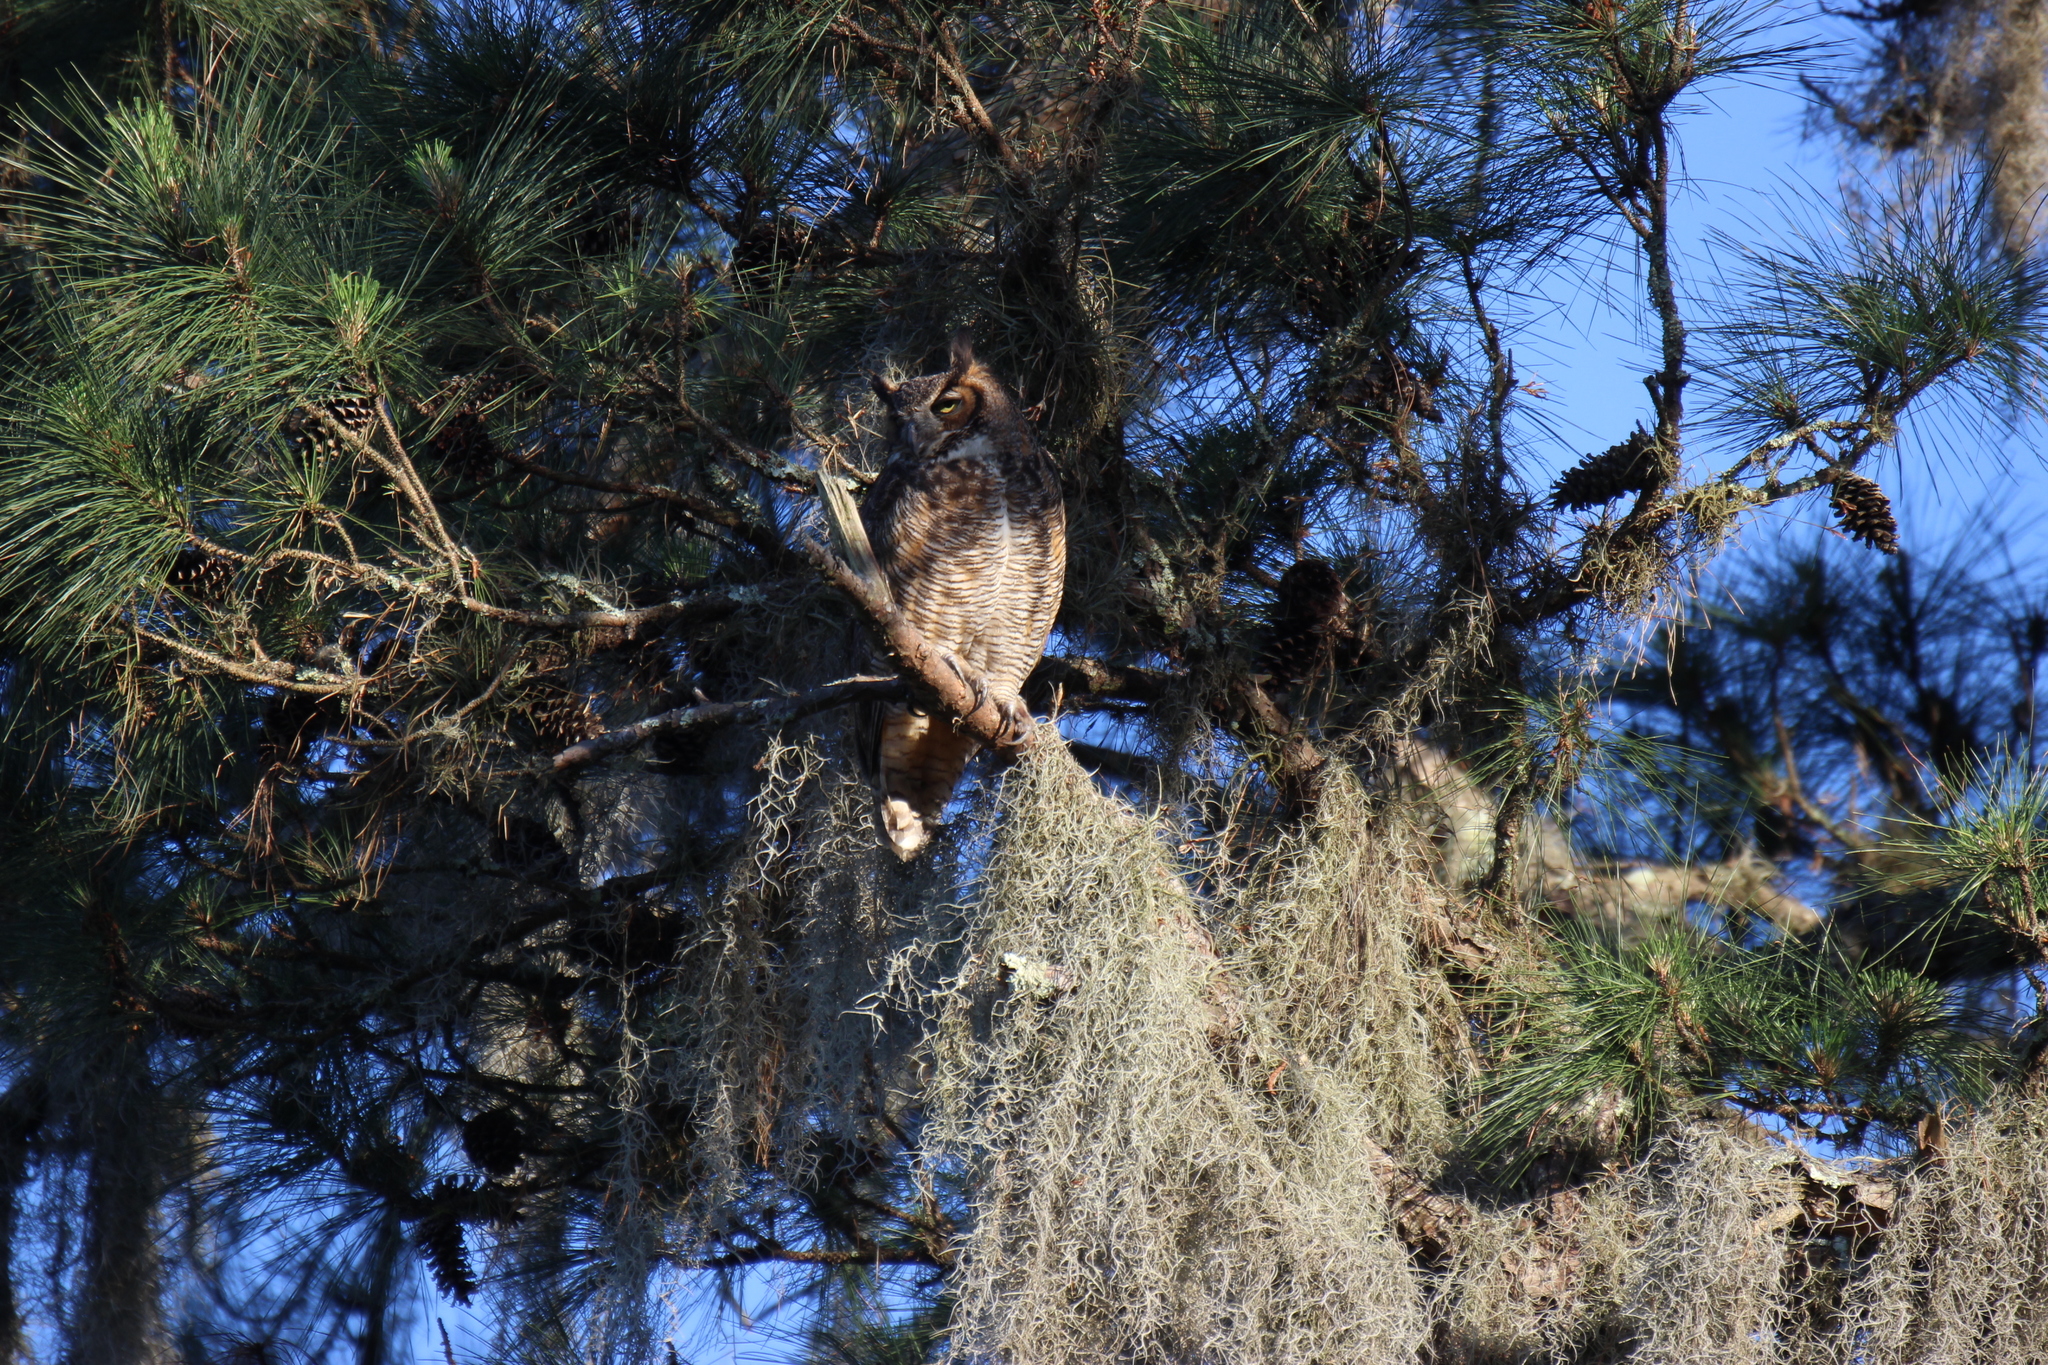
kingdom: Animalia
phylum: Chordata
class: Aves
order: Strigiformes
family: Strigidae
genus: Bubo
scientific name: Bubo virginianus
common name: Great horned owl
